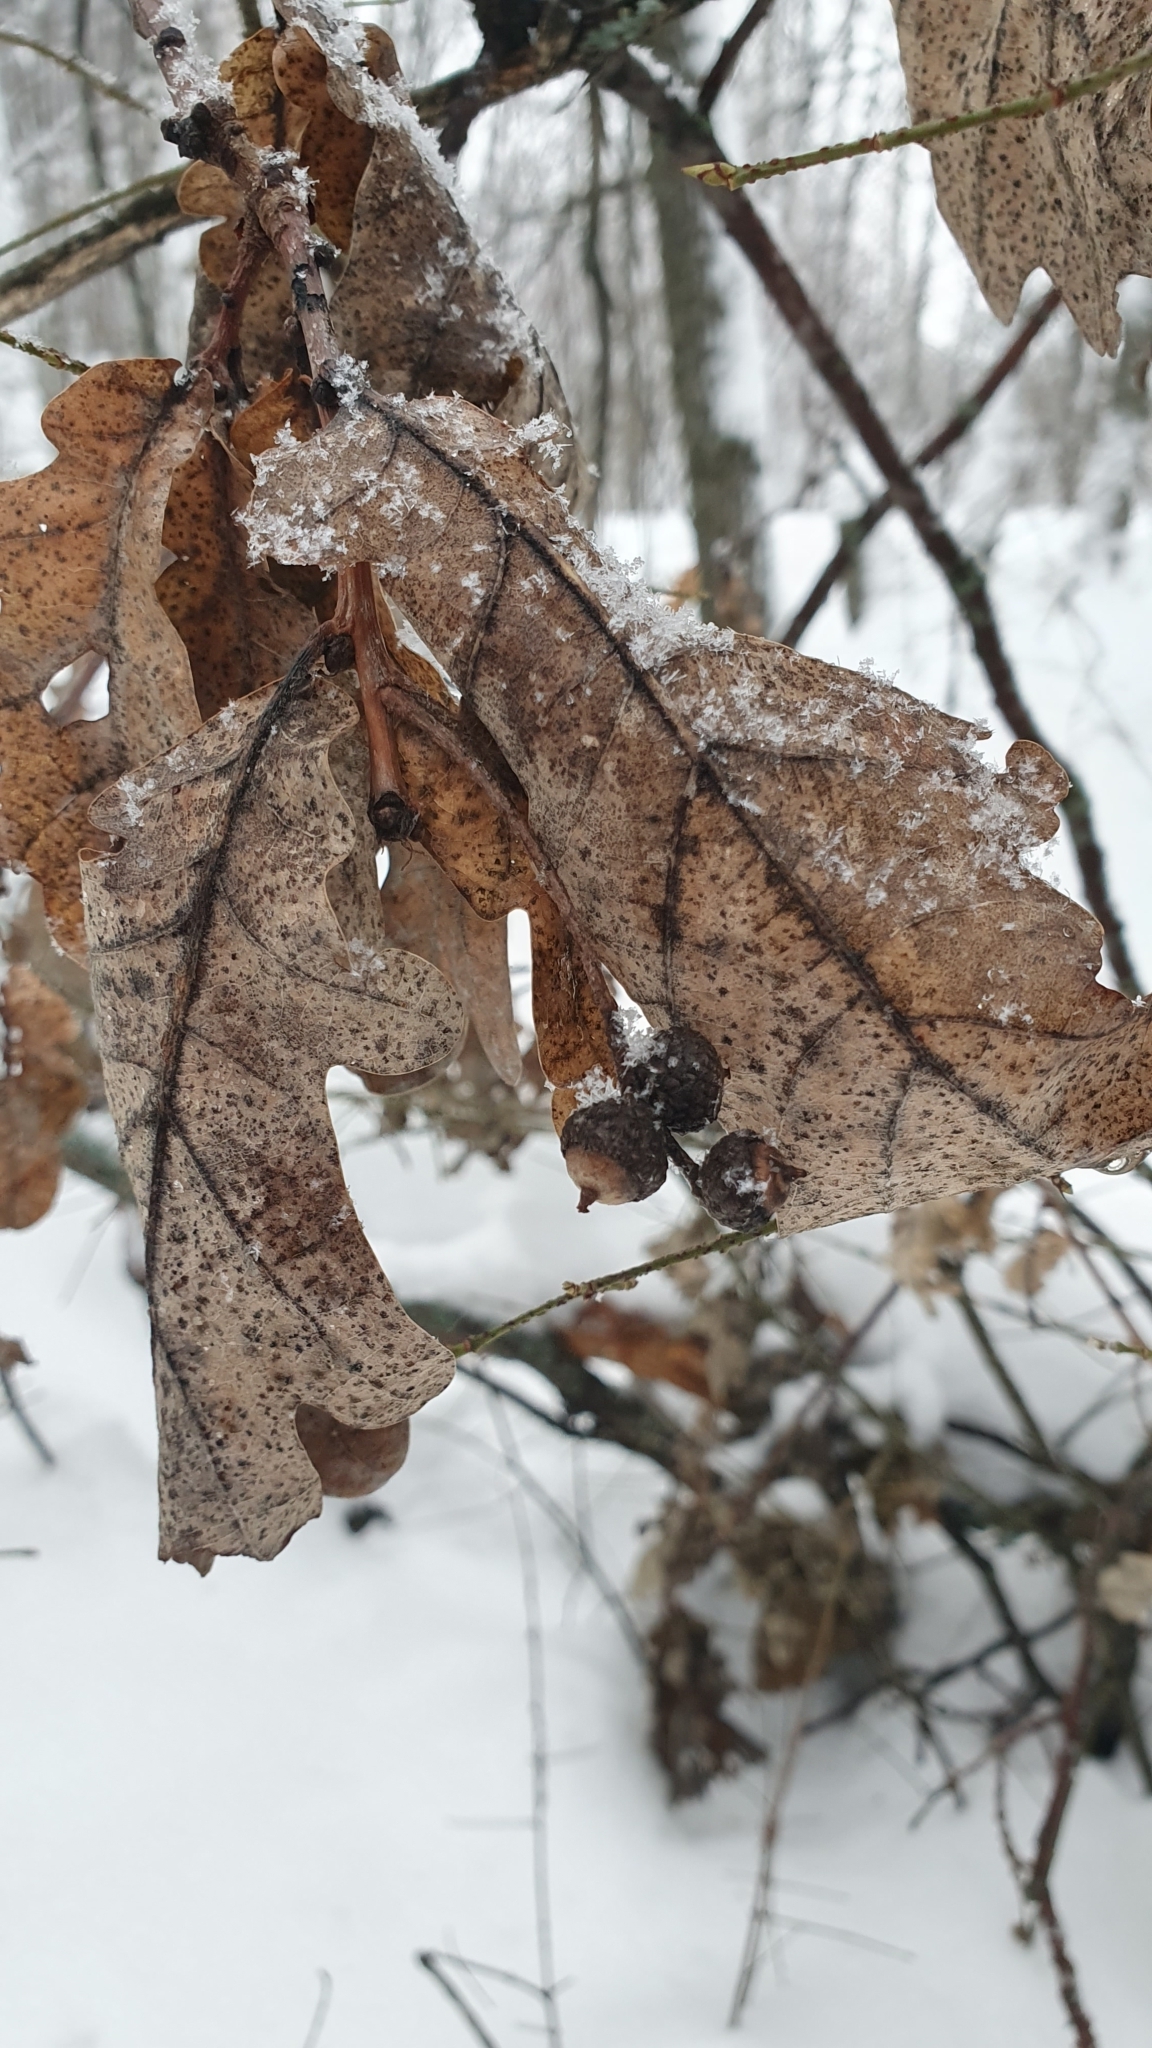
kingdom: Plantae
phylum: Tracheophyta
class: Magnoliopsida
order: Fagales
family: Fagaceae
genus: Quercus
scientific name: Quercus robur
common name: Pedunculate oak
